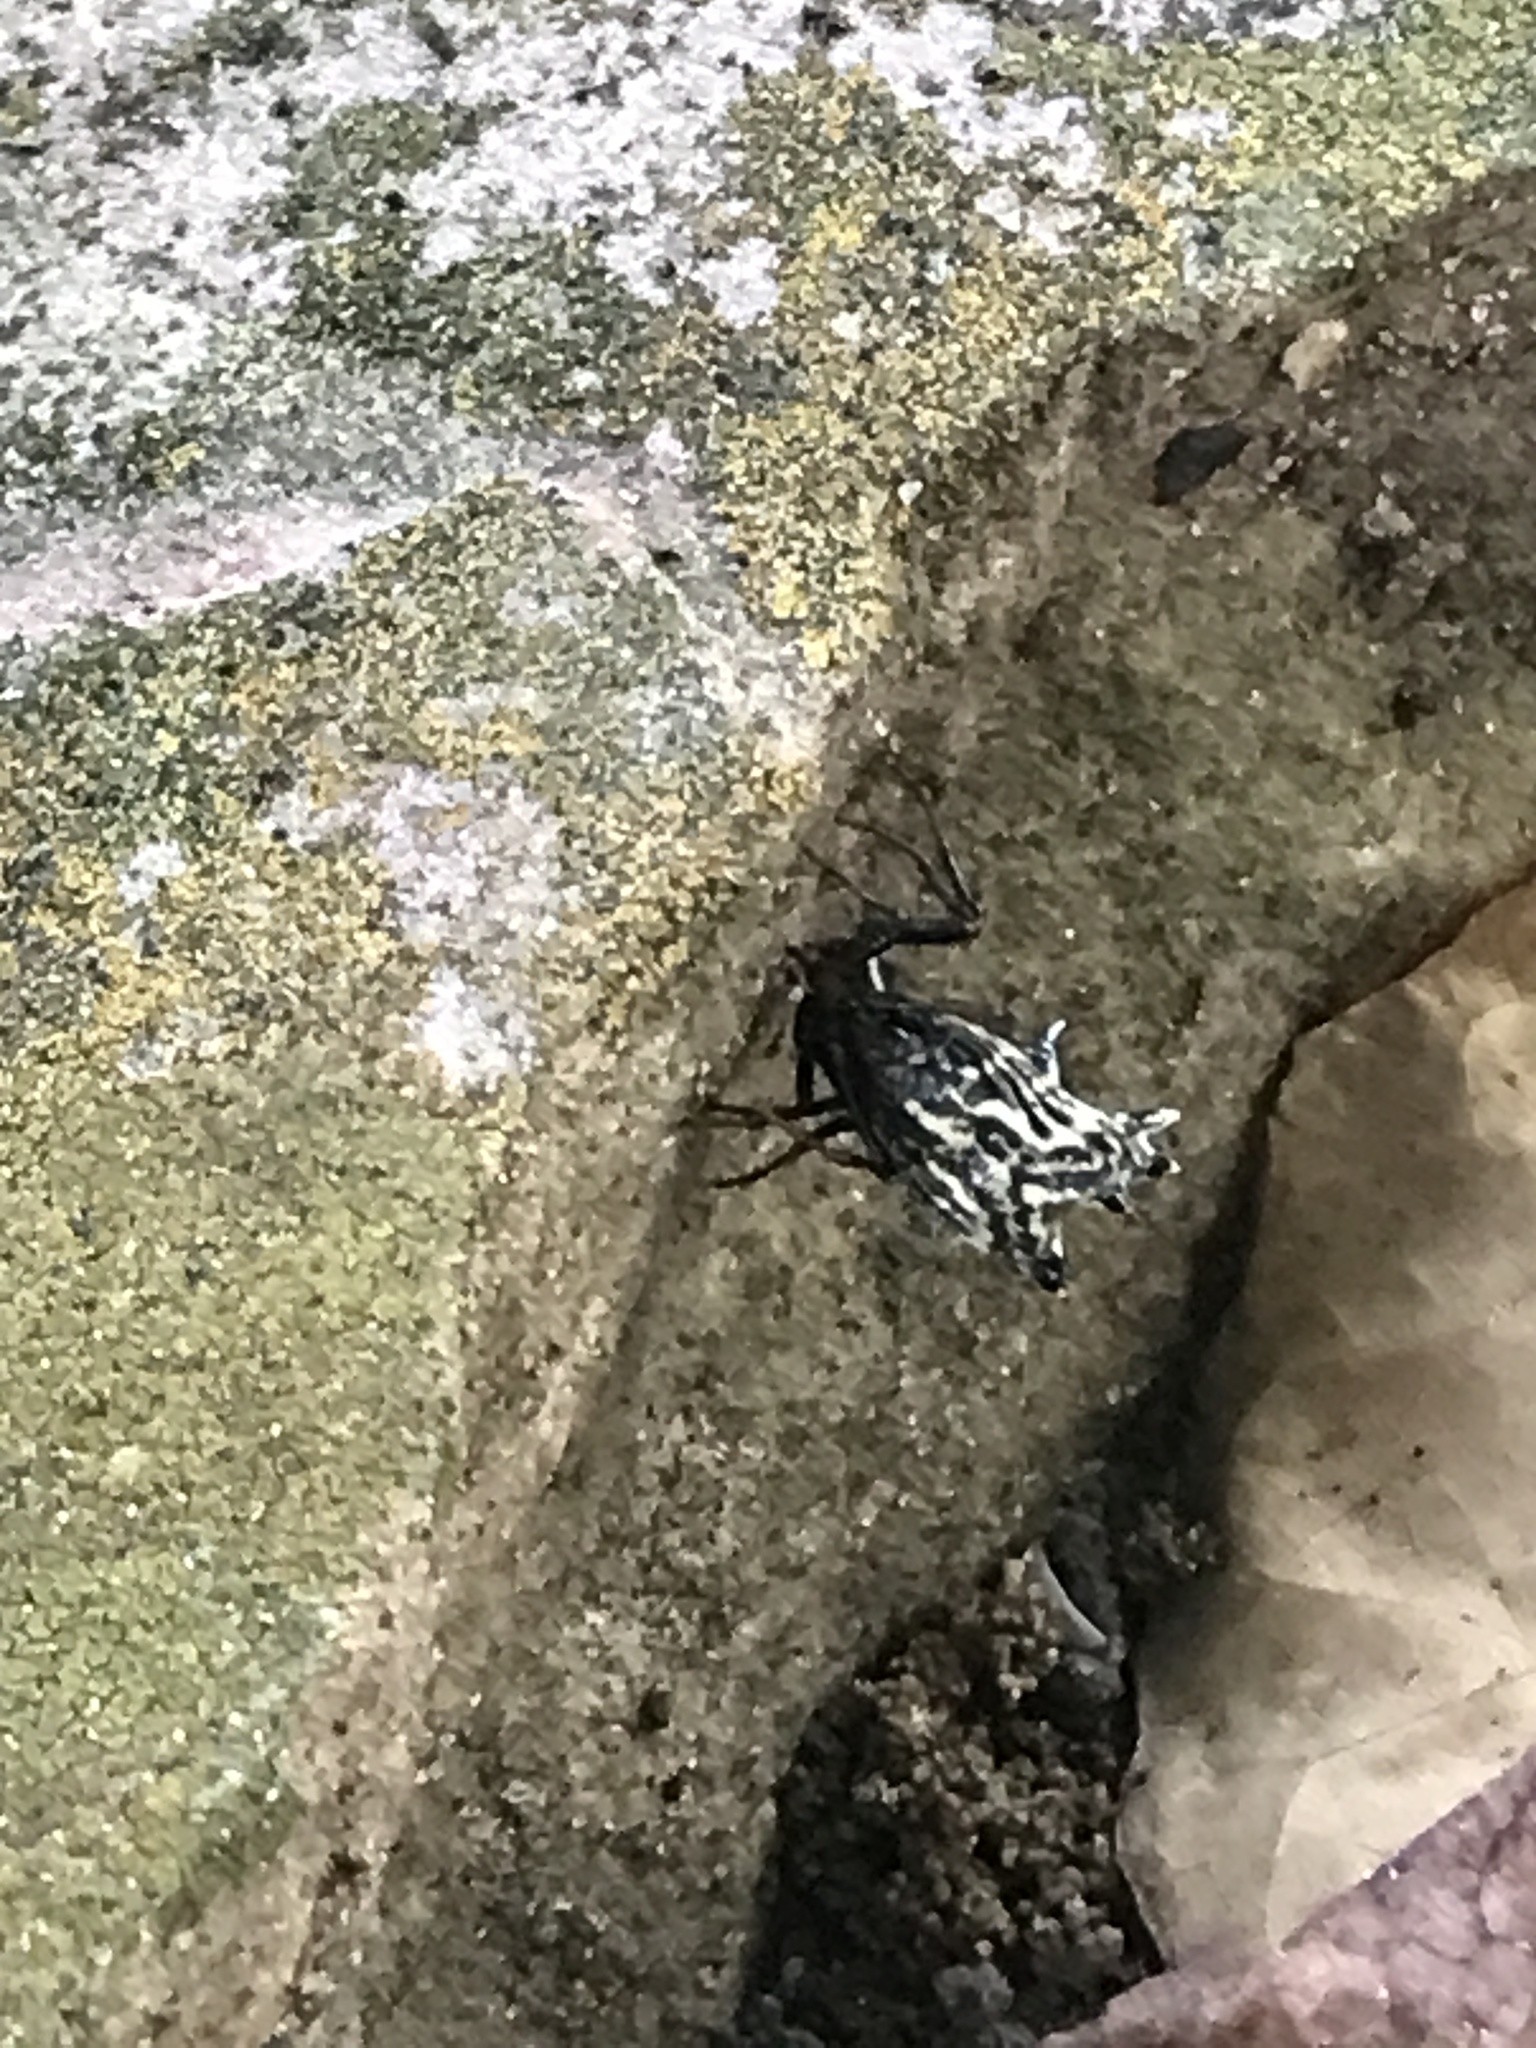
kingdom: Animalia
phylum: Arthropoda
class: Arachnida
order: Araneae
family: Araneidae
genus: Micrathena
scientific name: Micrathena gracilis
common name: Orb weavers
